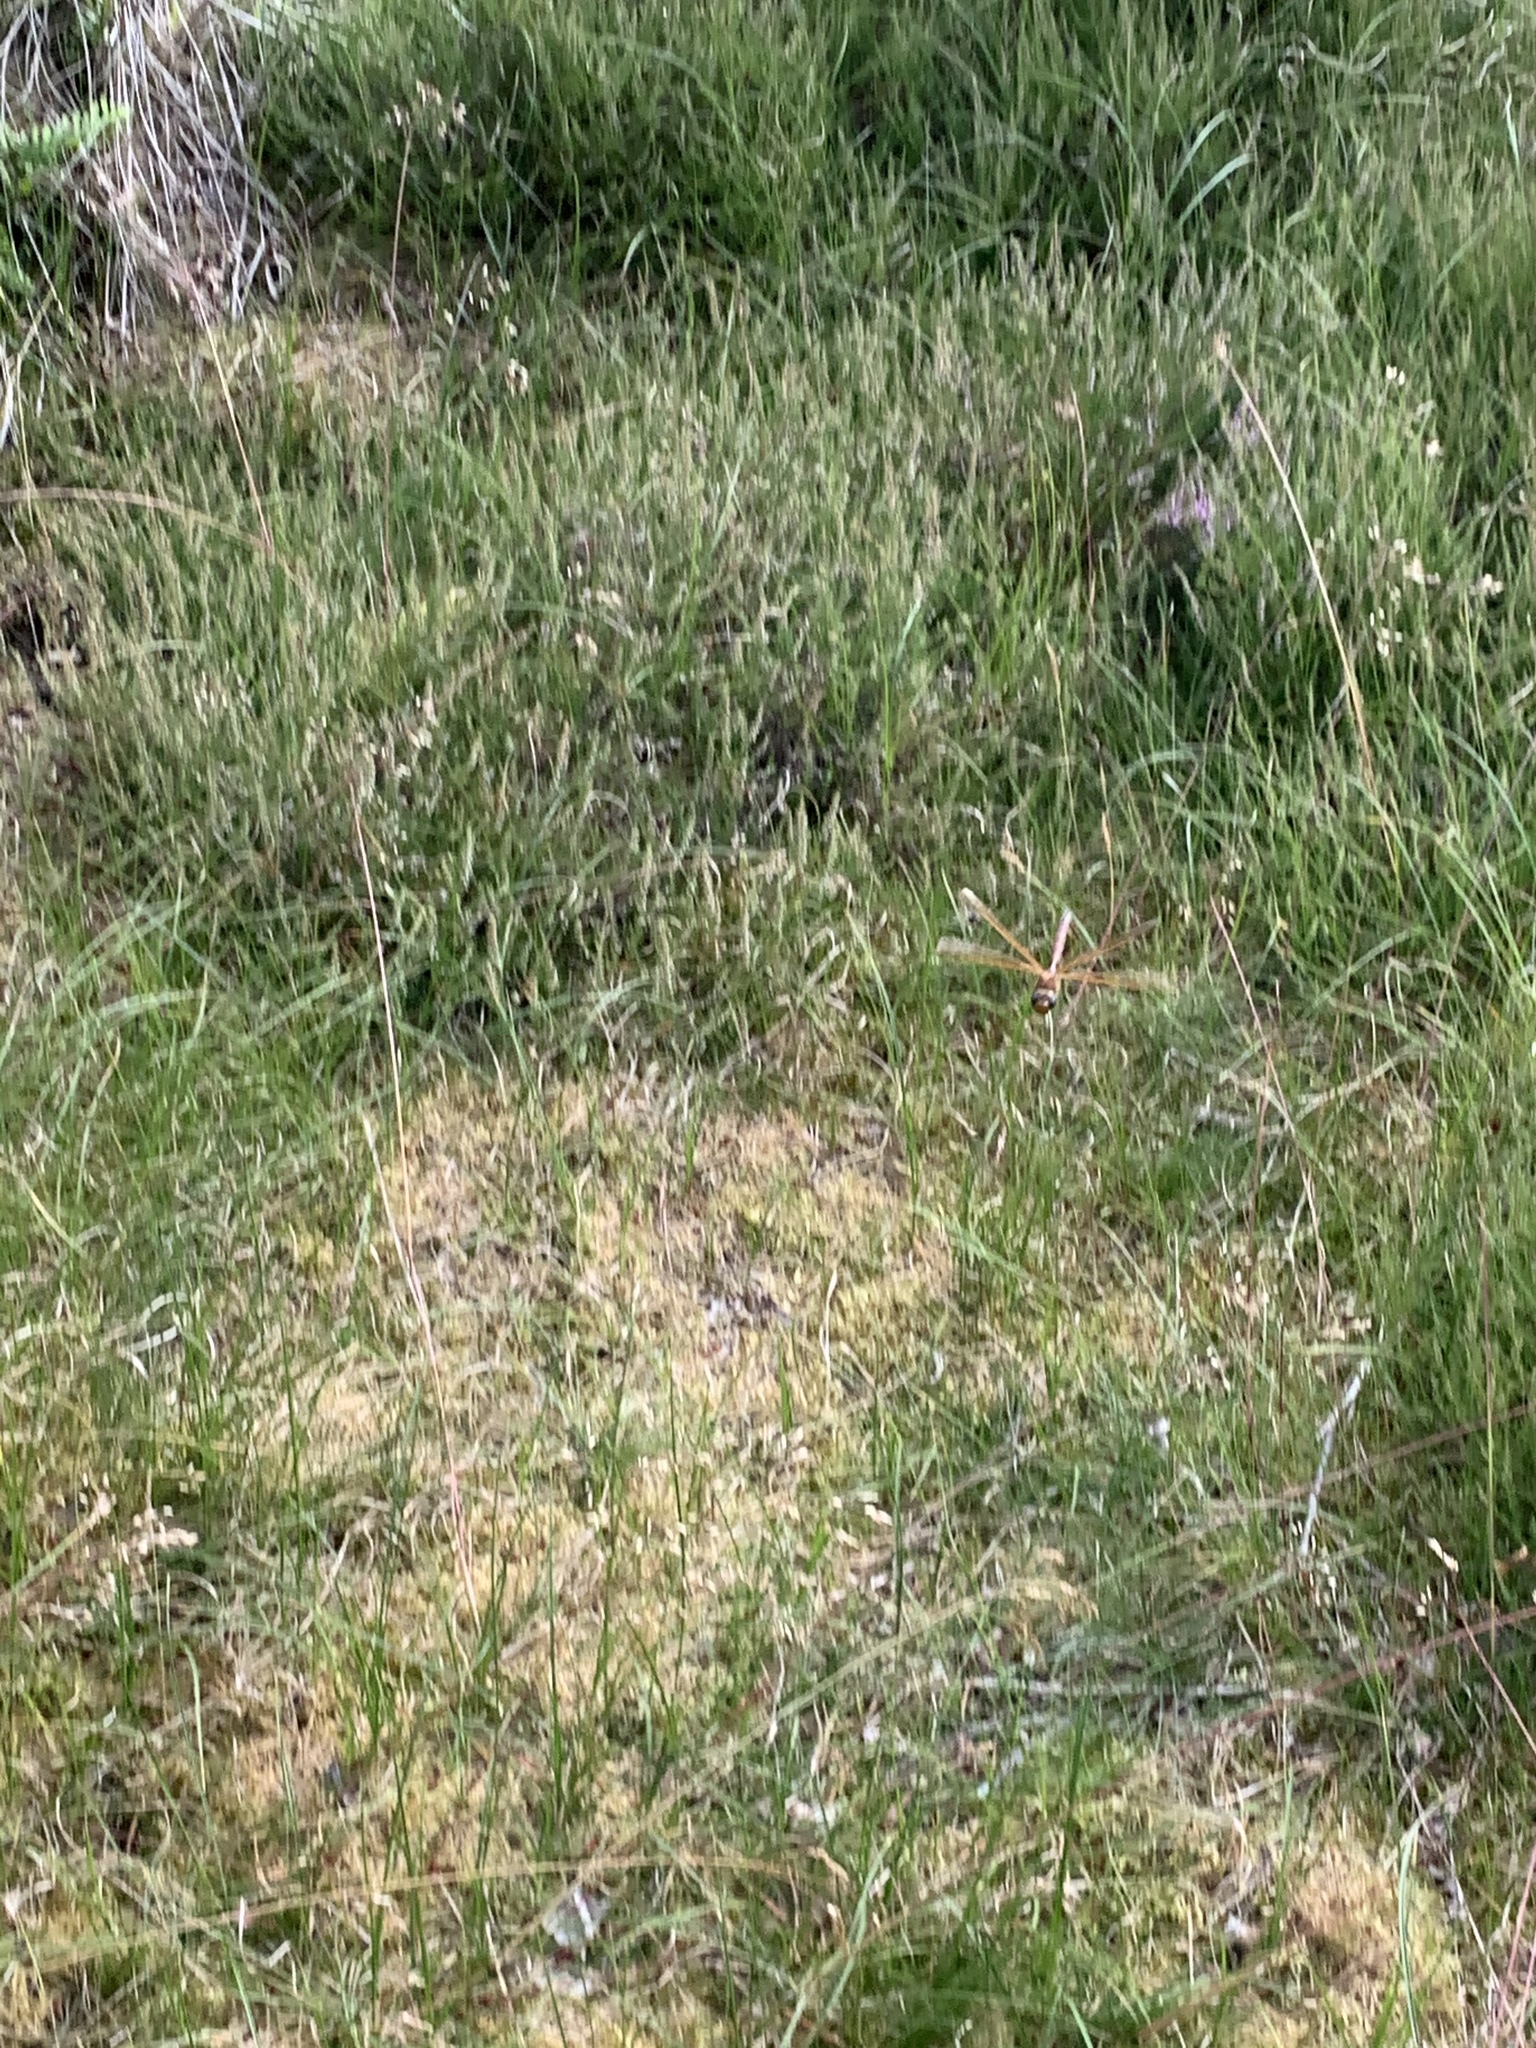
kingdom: Animalia
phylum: Arthropoda
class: Insecta
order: Odonata
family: Aeshnidae
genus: Aeshna
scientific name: Aeshna grandis
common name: Brown hawker
